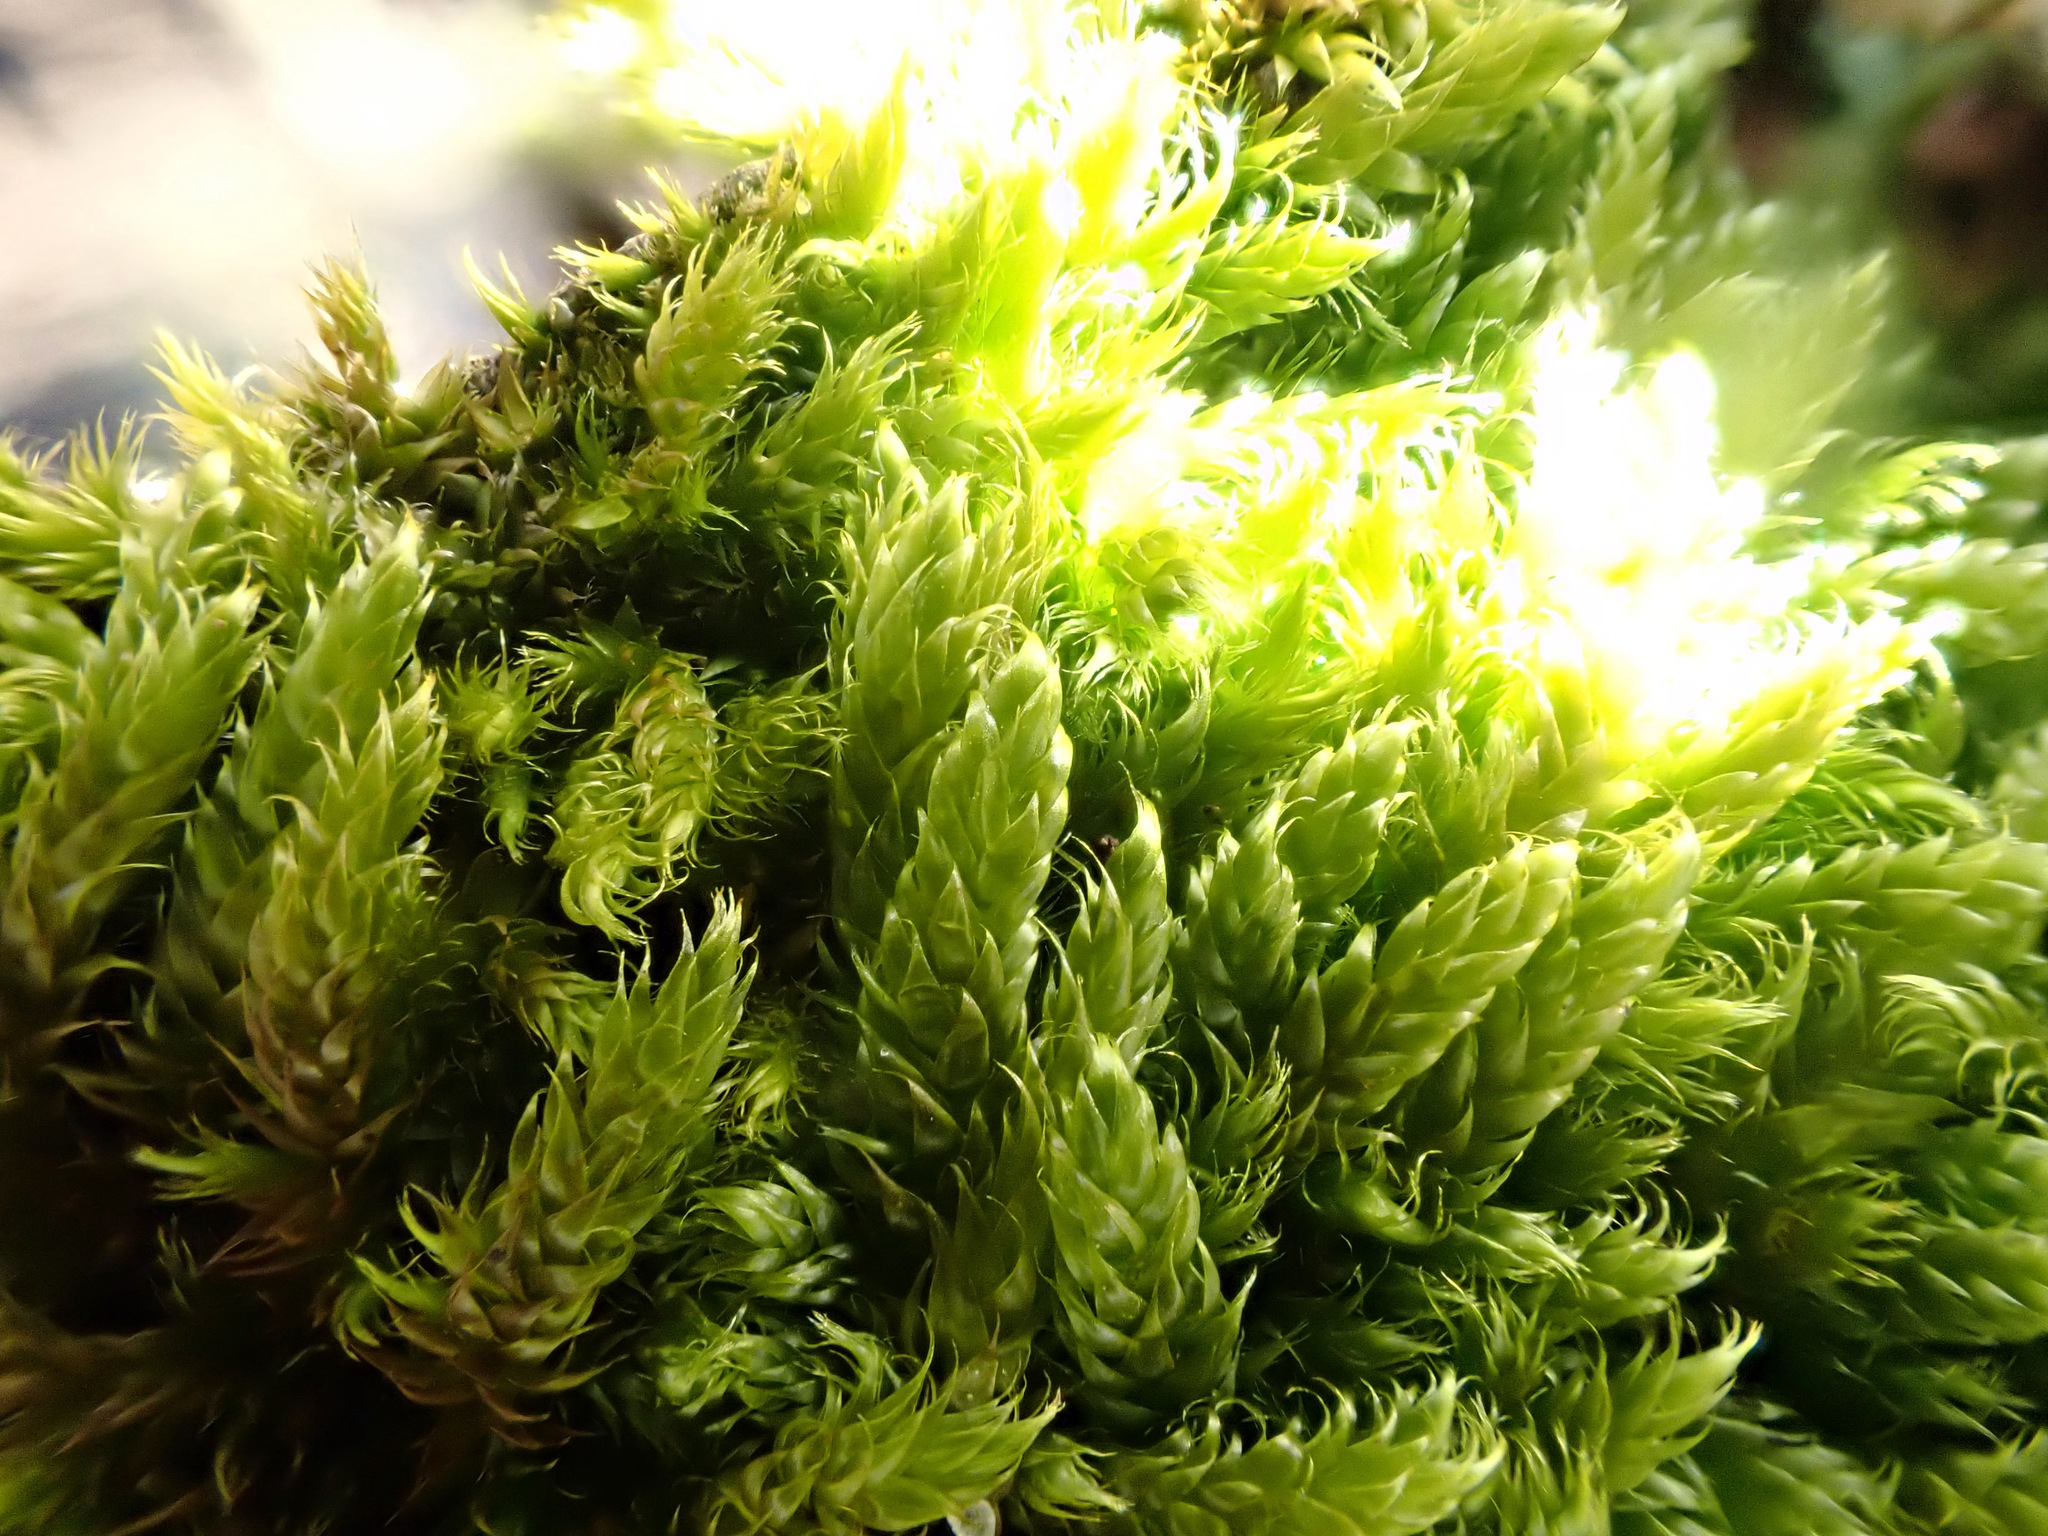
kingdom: Plantae
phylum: Bryophyta
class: Bryopsida
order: Hypnales
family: Hypnaceae
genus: Hypnum
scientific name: Hypnum cupressiforme
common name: Cypress-leaved plait-moss
